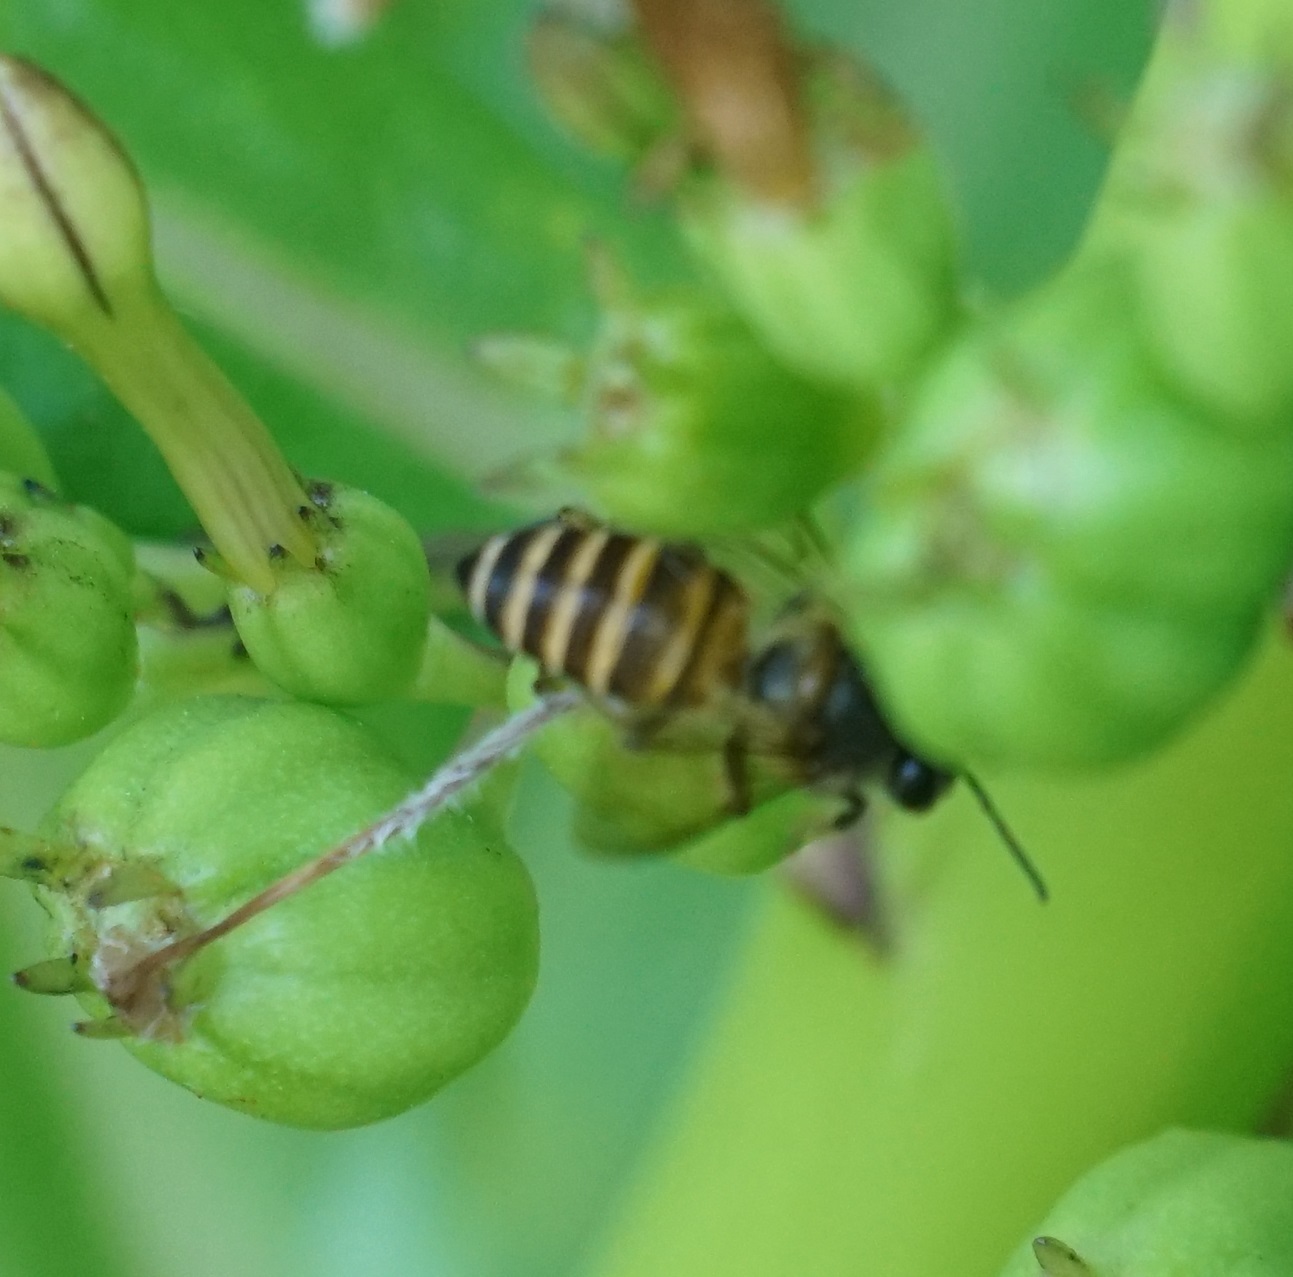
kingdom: Animalia
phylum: Arthropoda
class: Insecta
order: Hymenoptera
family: Apidae
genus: Apis
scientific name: Apis cerana
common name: Honey bee
